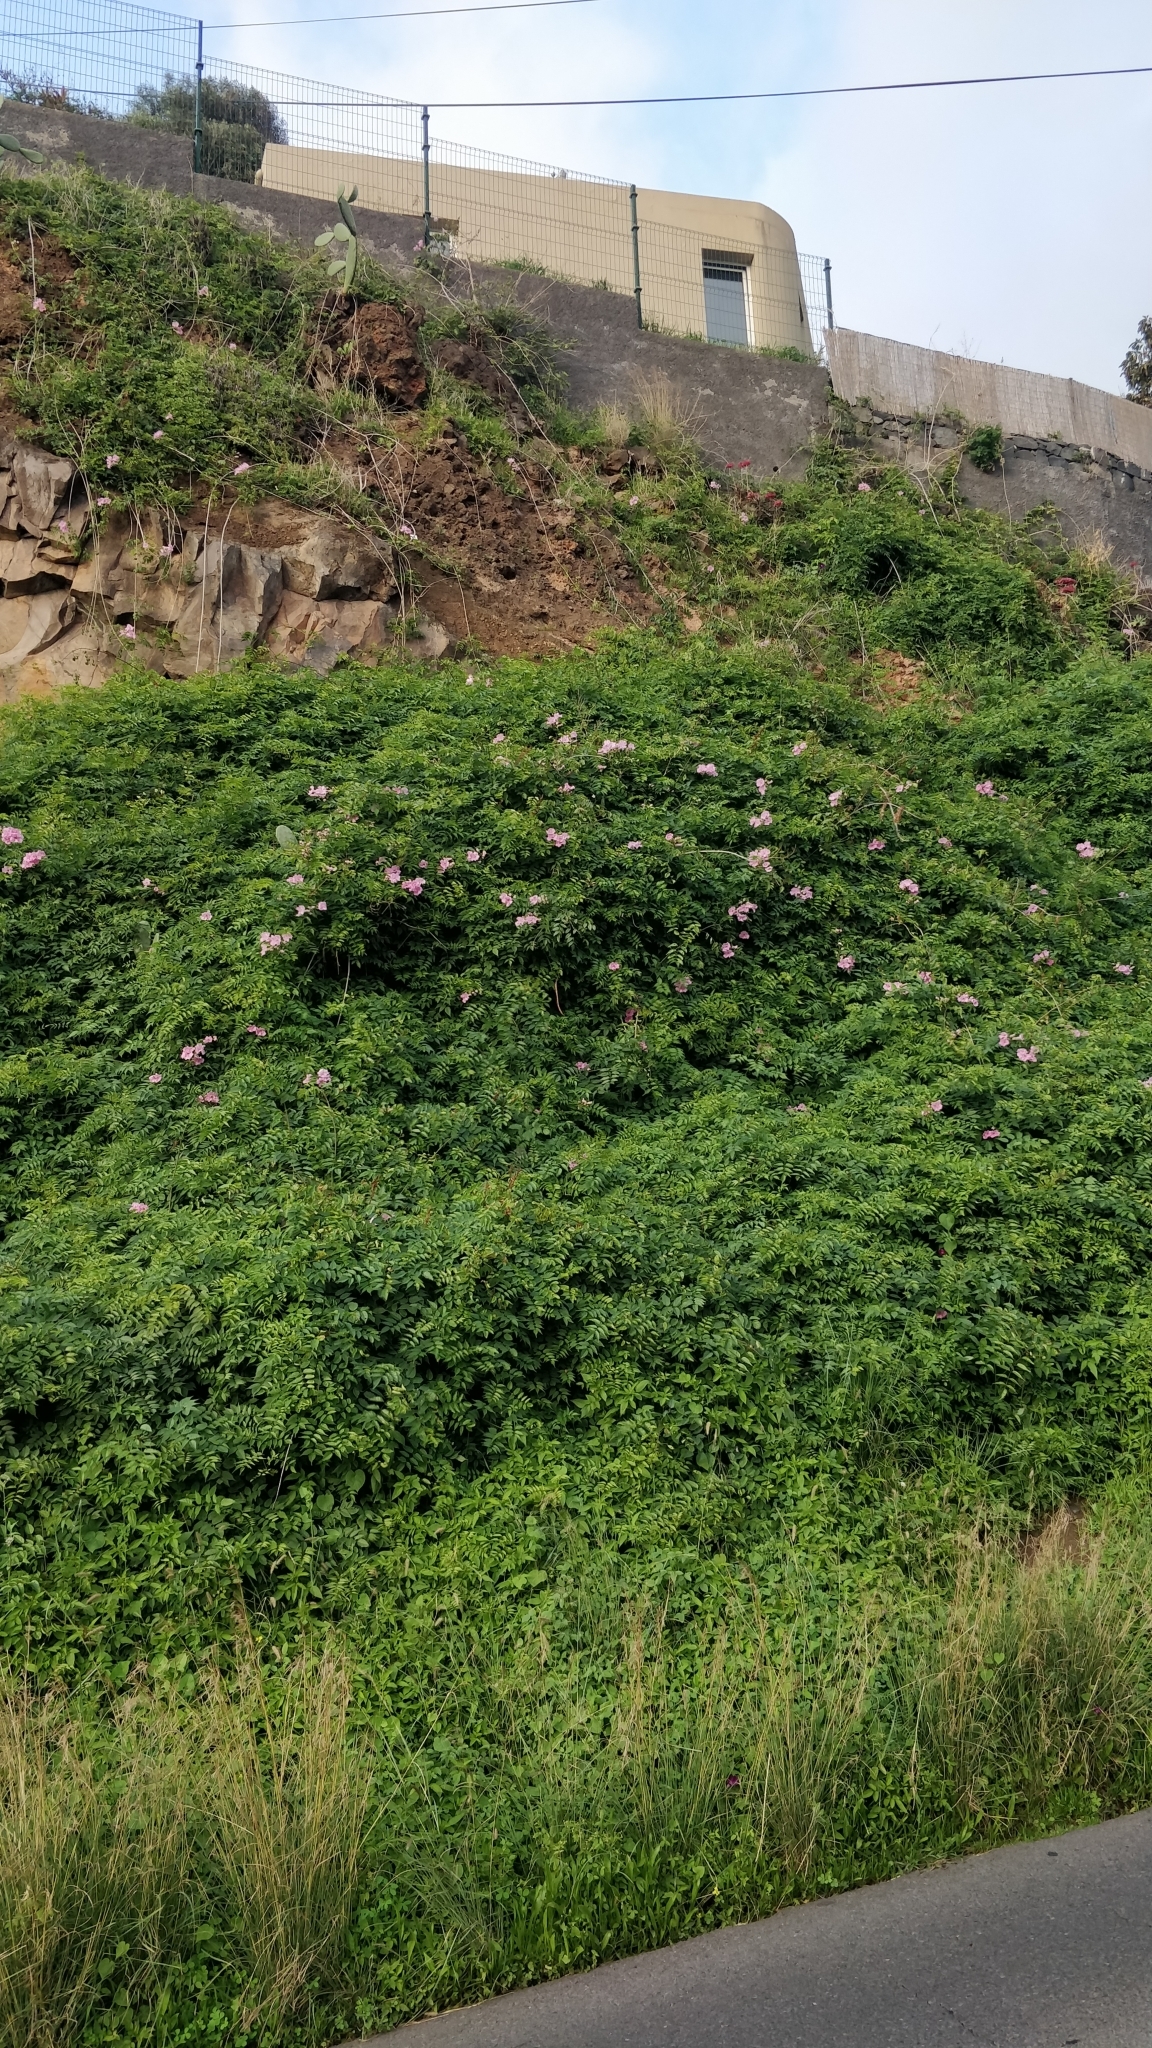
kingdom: Plantae
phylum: Tracheophyta
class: Magnoliopsida
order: Lamiales
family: Bignoniaceae
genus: Podranea
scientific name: Podranea ricasoliana
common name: Zimbabwe creeper
